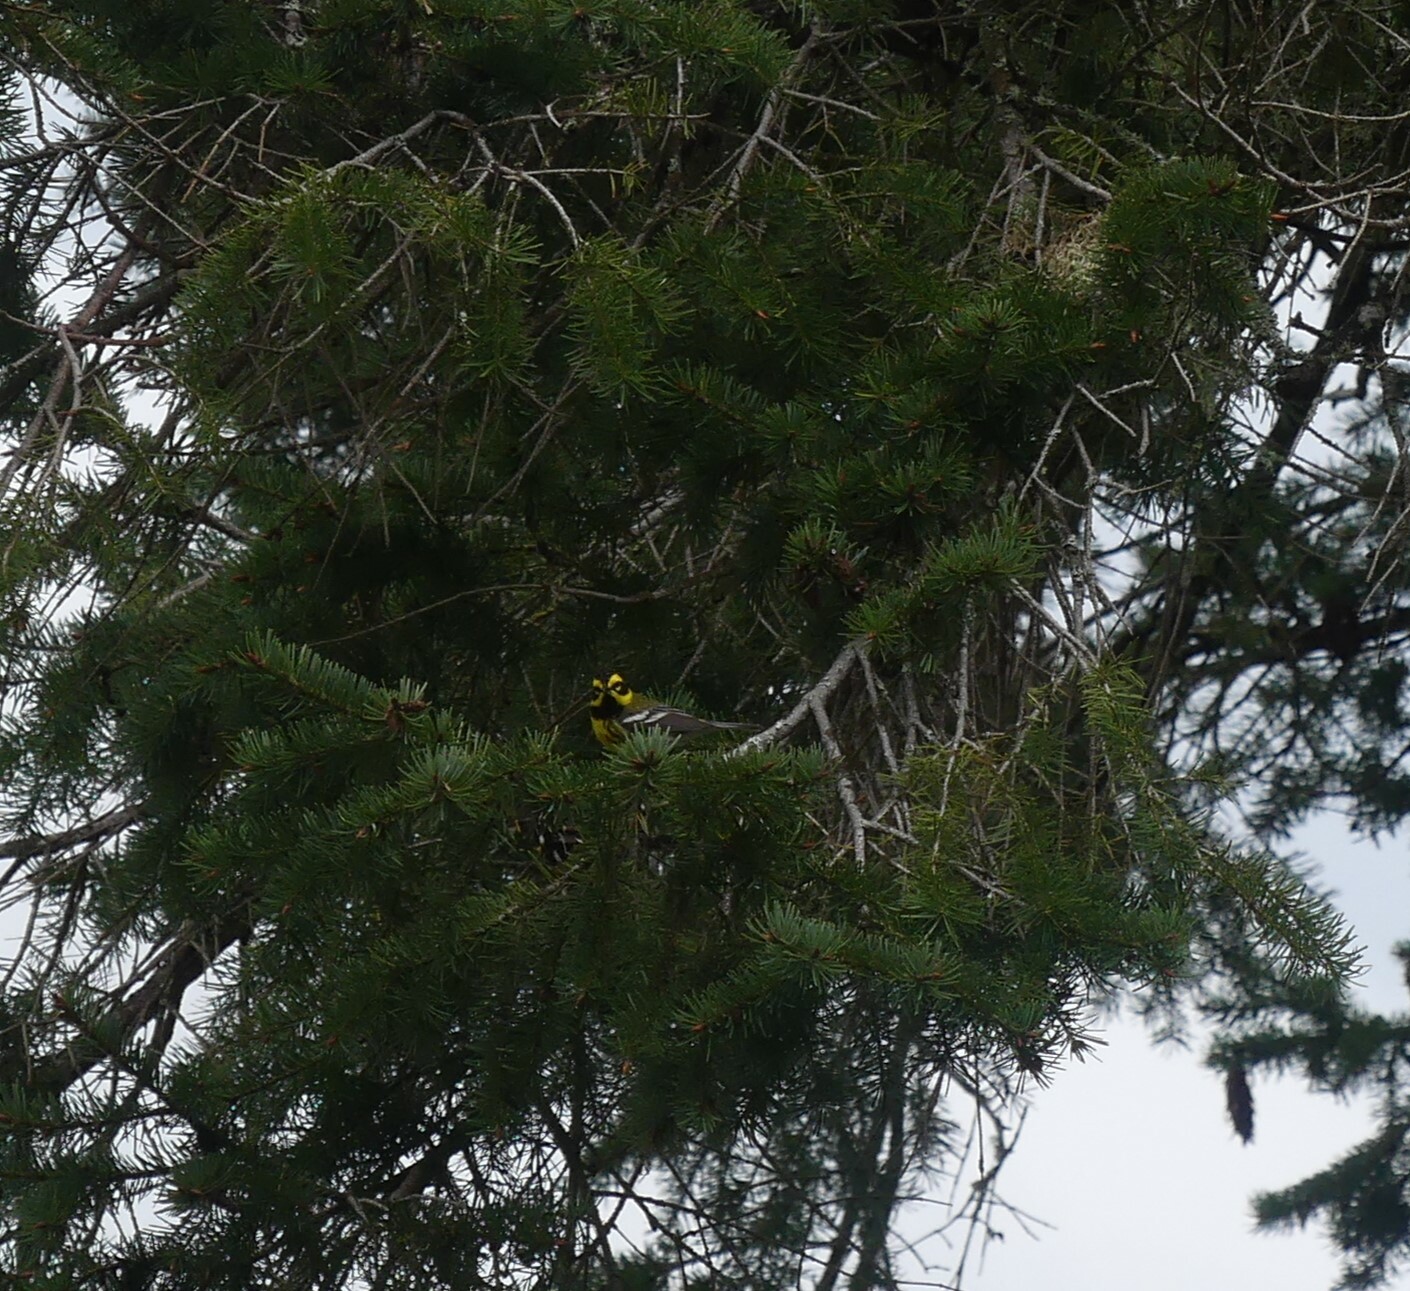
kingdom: Animalia
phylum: Chordata
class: Aves
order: Passeriformes
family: Parulidae
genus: Setophaga
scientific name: Setophaga townsendi
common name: Townsend's warbler
